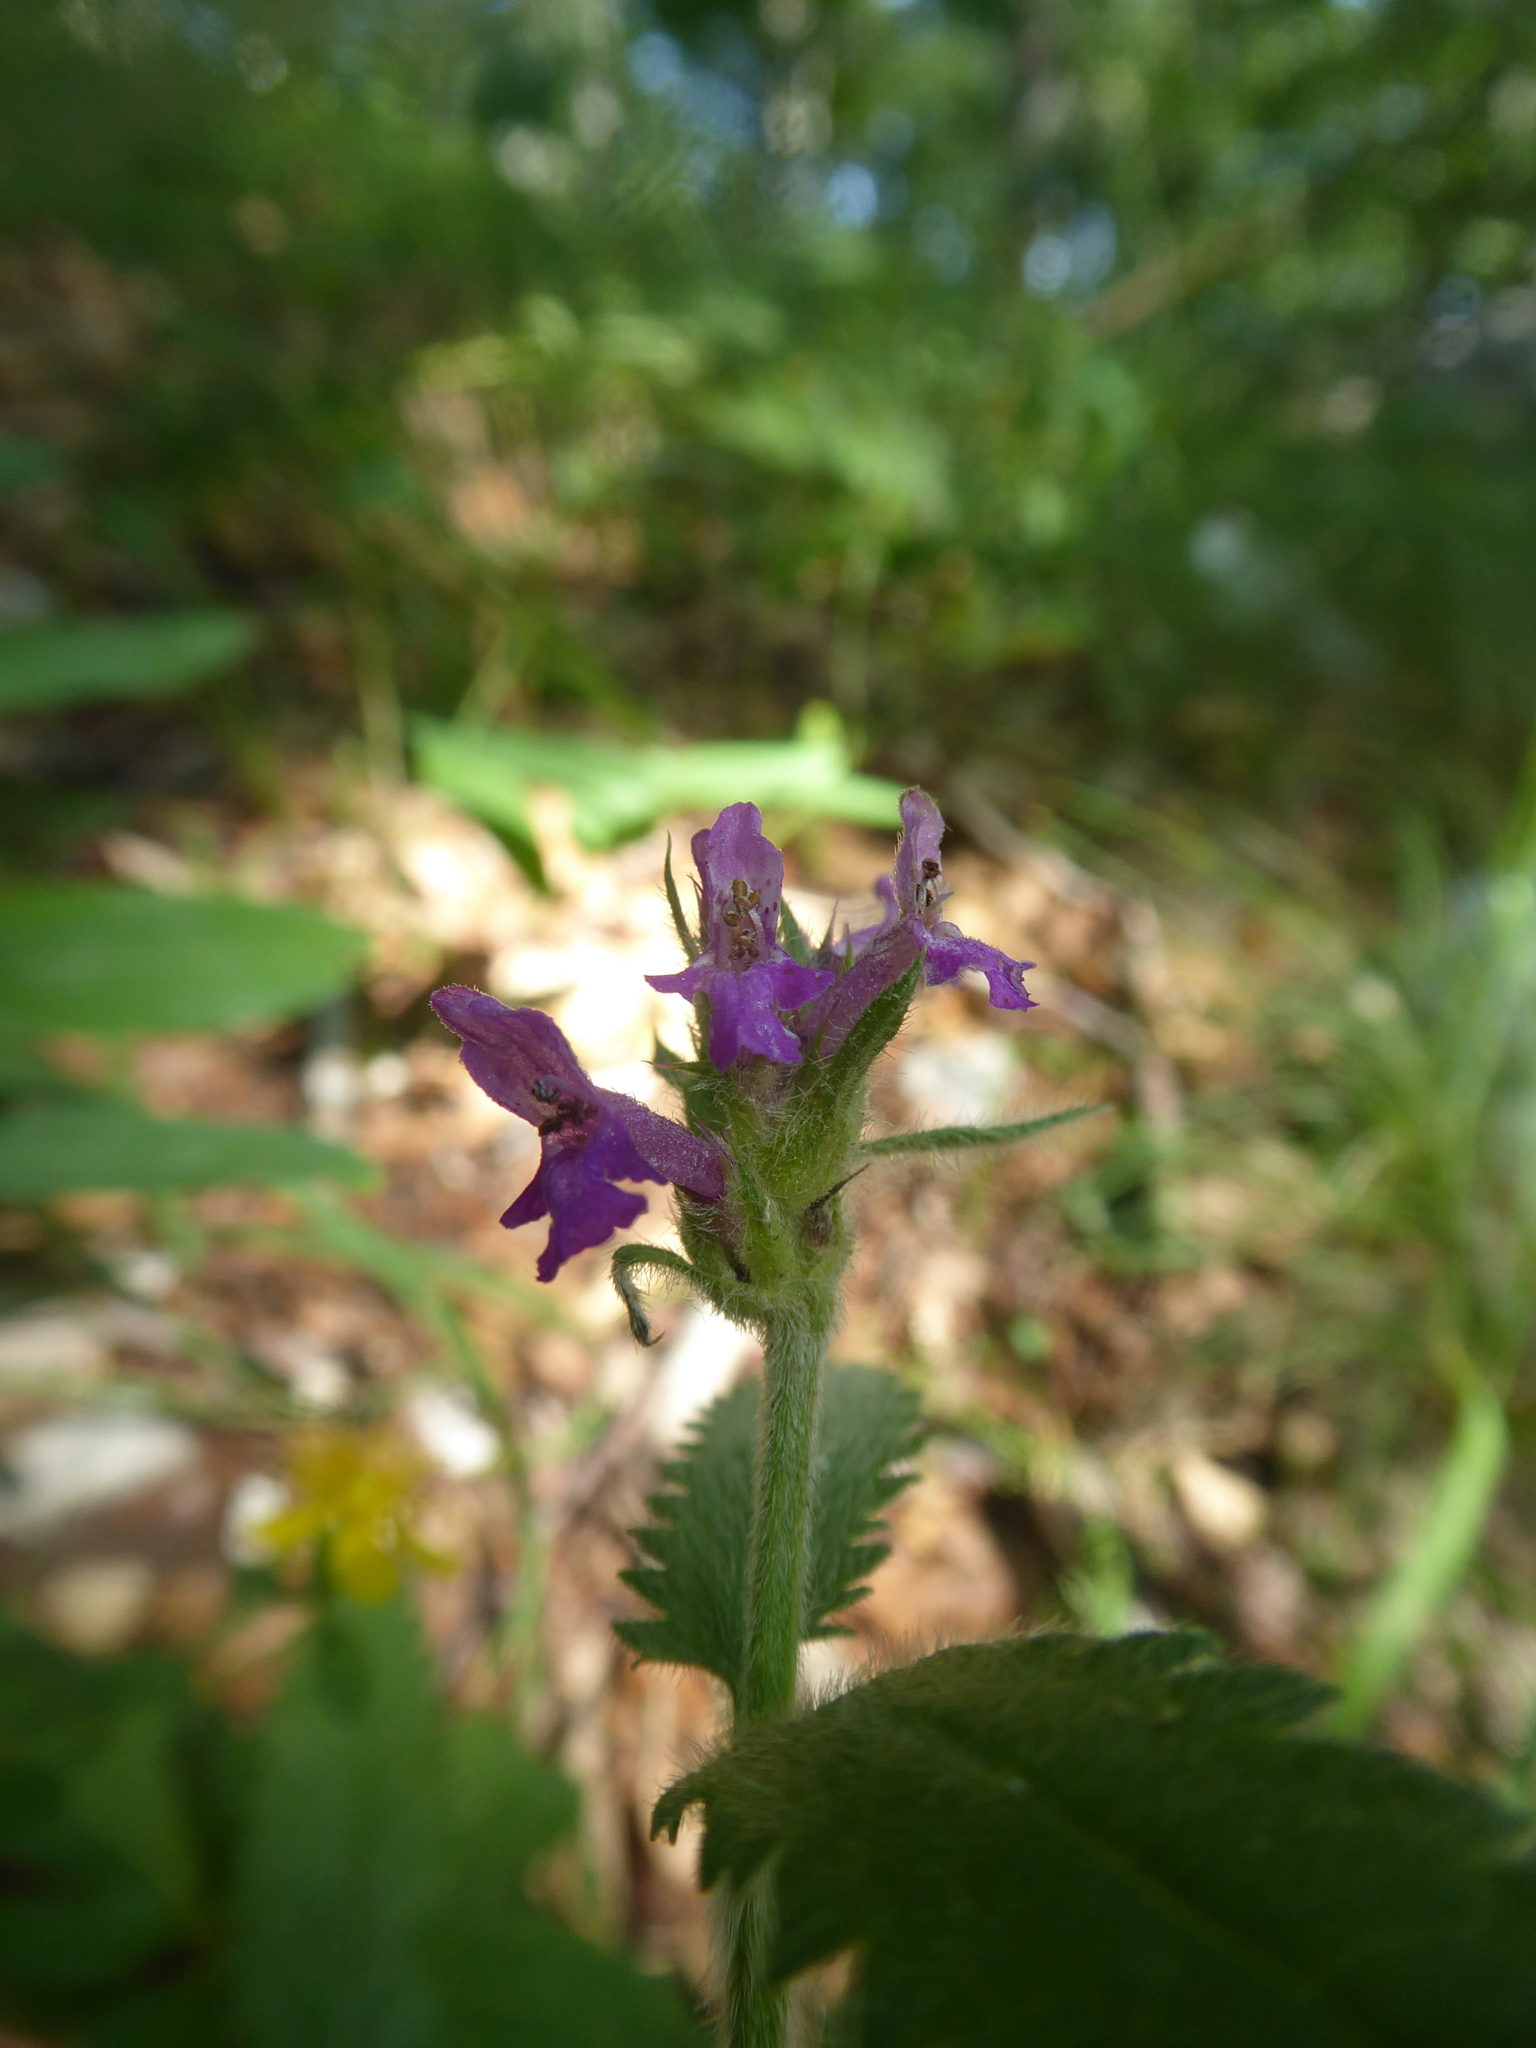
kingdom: Plantae
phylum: Tracheophyta
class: Magnoliopsida
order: Lamiales
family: Lamiaceae
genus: Betonica
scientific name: Betonica officinalis
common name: Bishop's-wort
